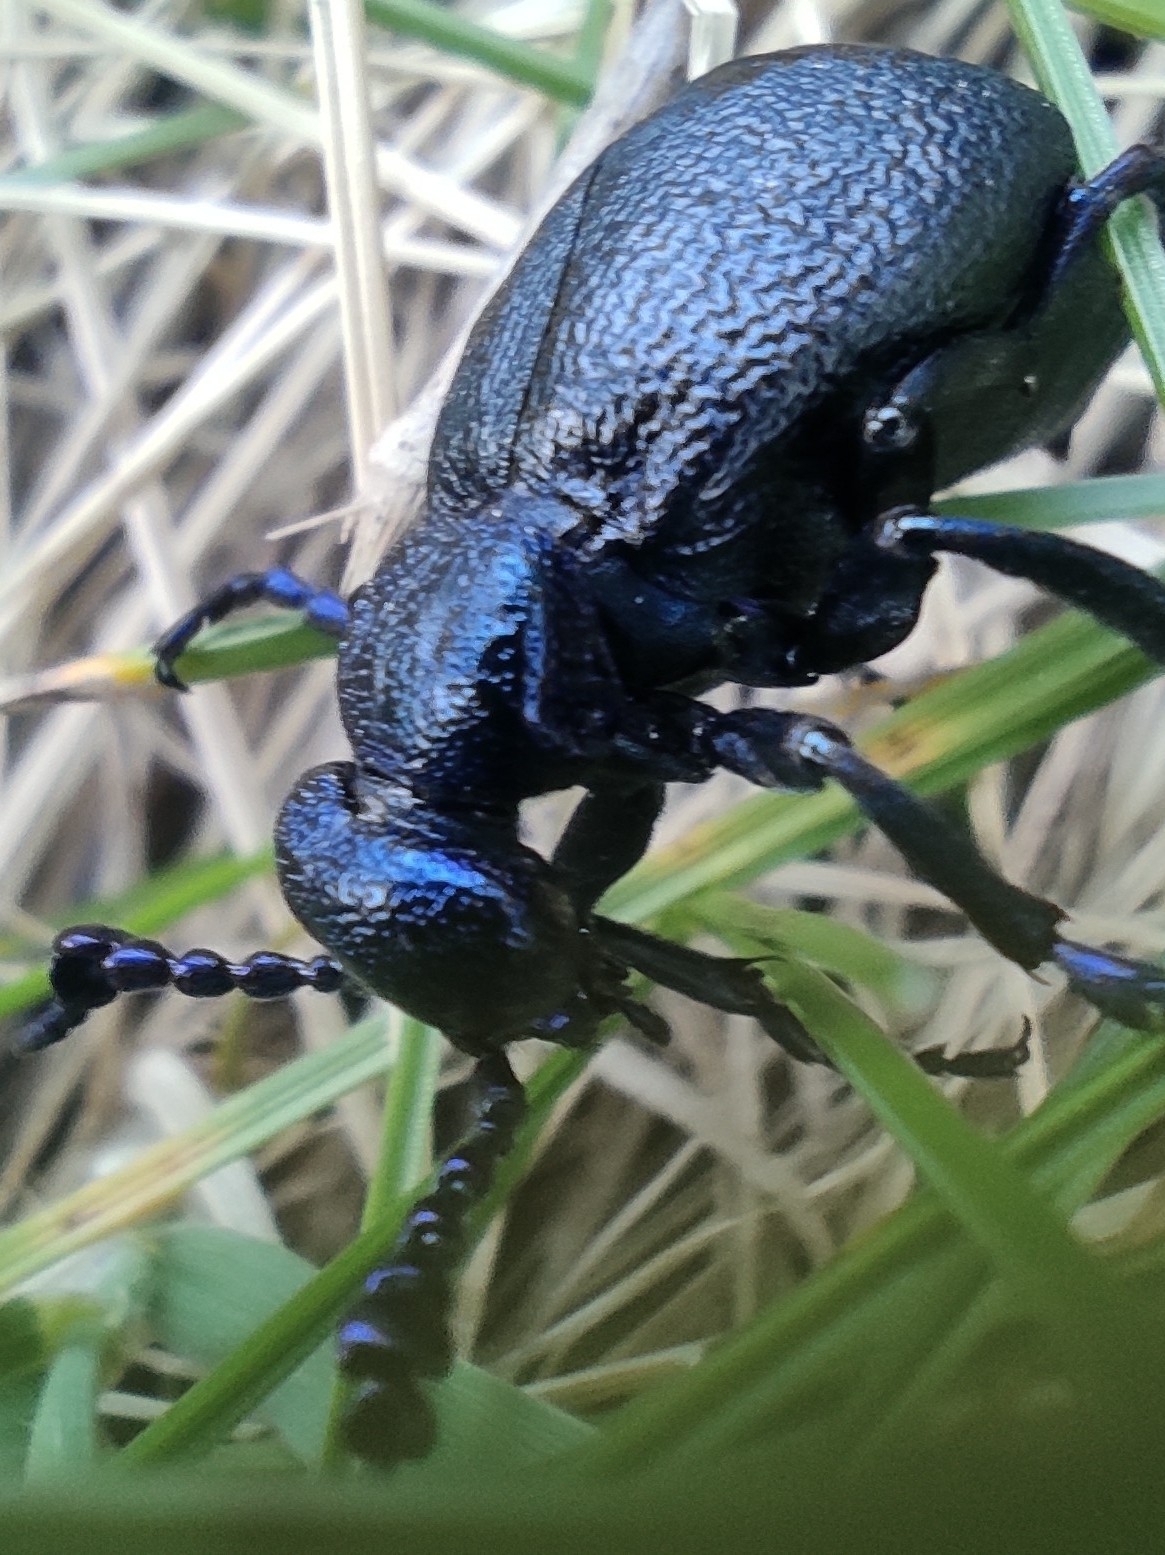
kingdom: Animalia
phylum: Arthropoda
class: Insecta
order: Coleoptera
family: Meloidae
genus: Meloe
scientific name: Meloe proscarabaeus
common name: Black oil-beetle
